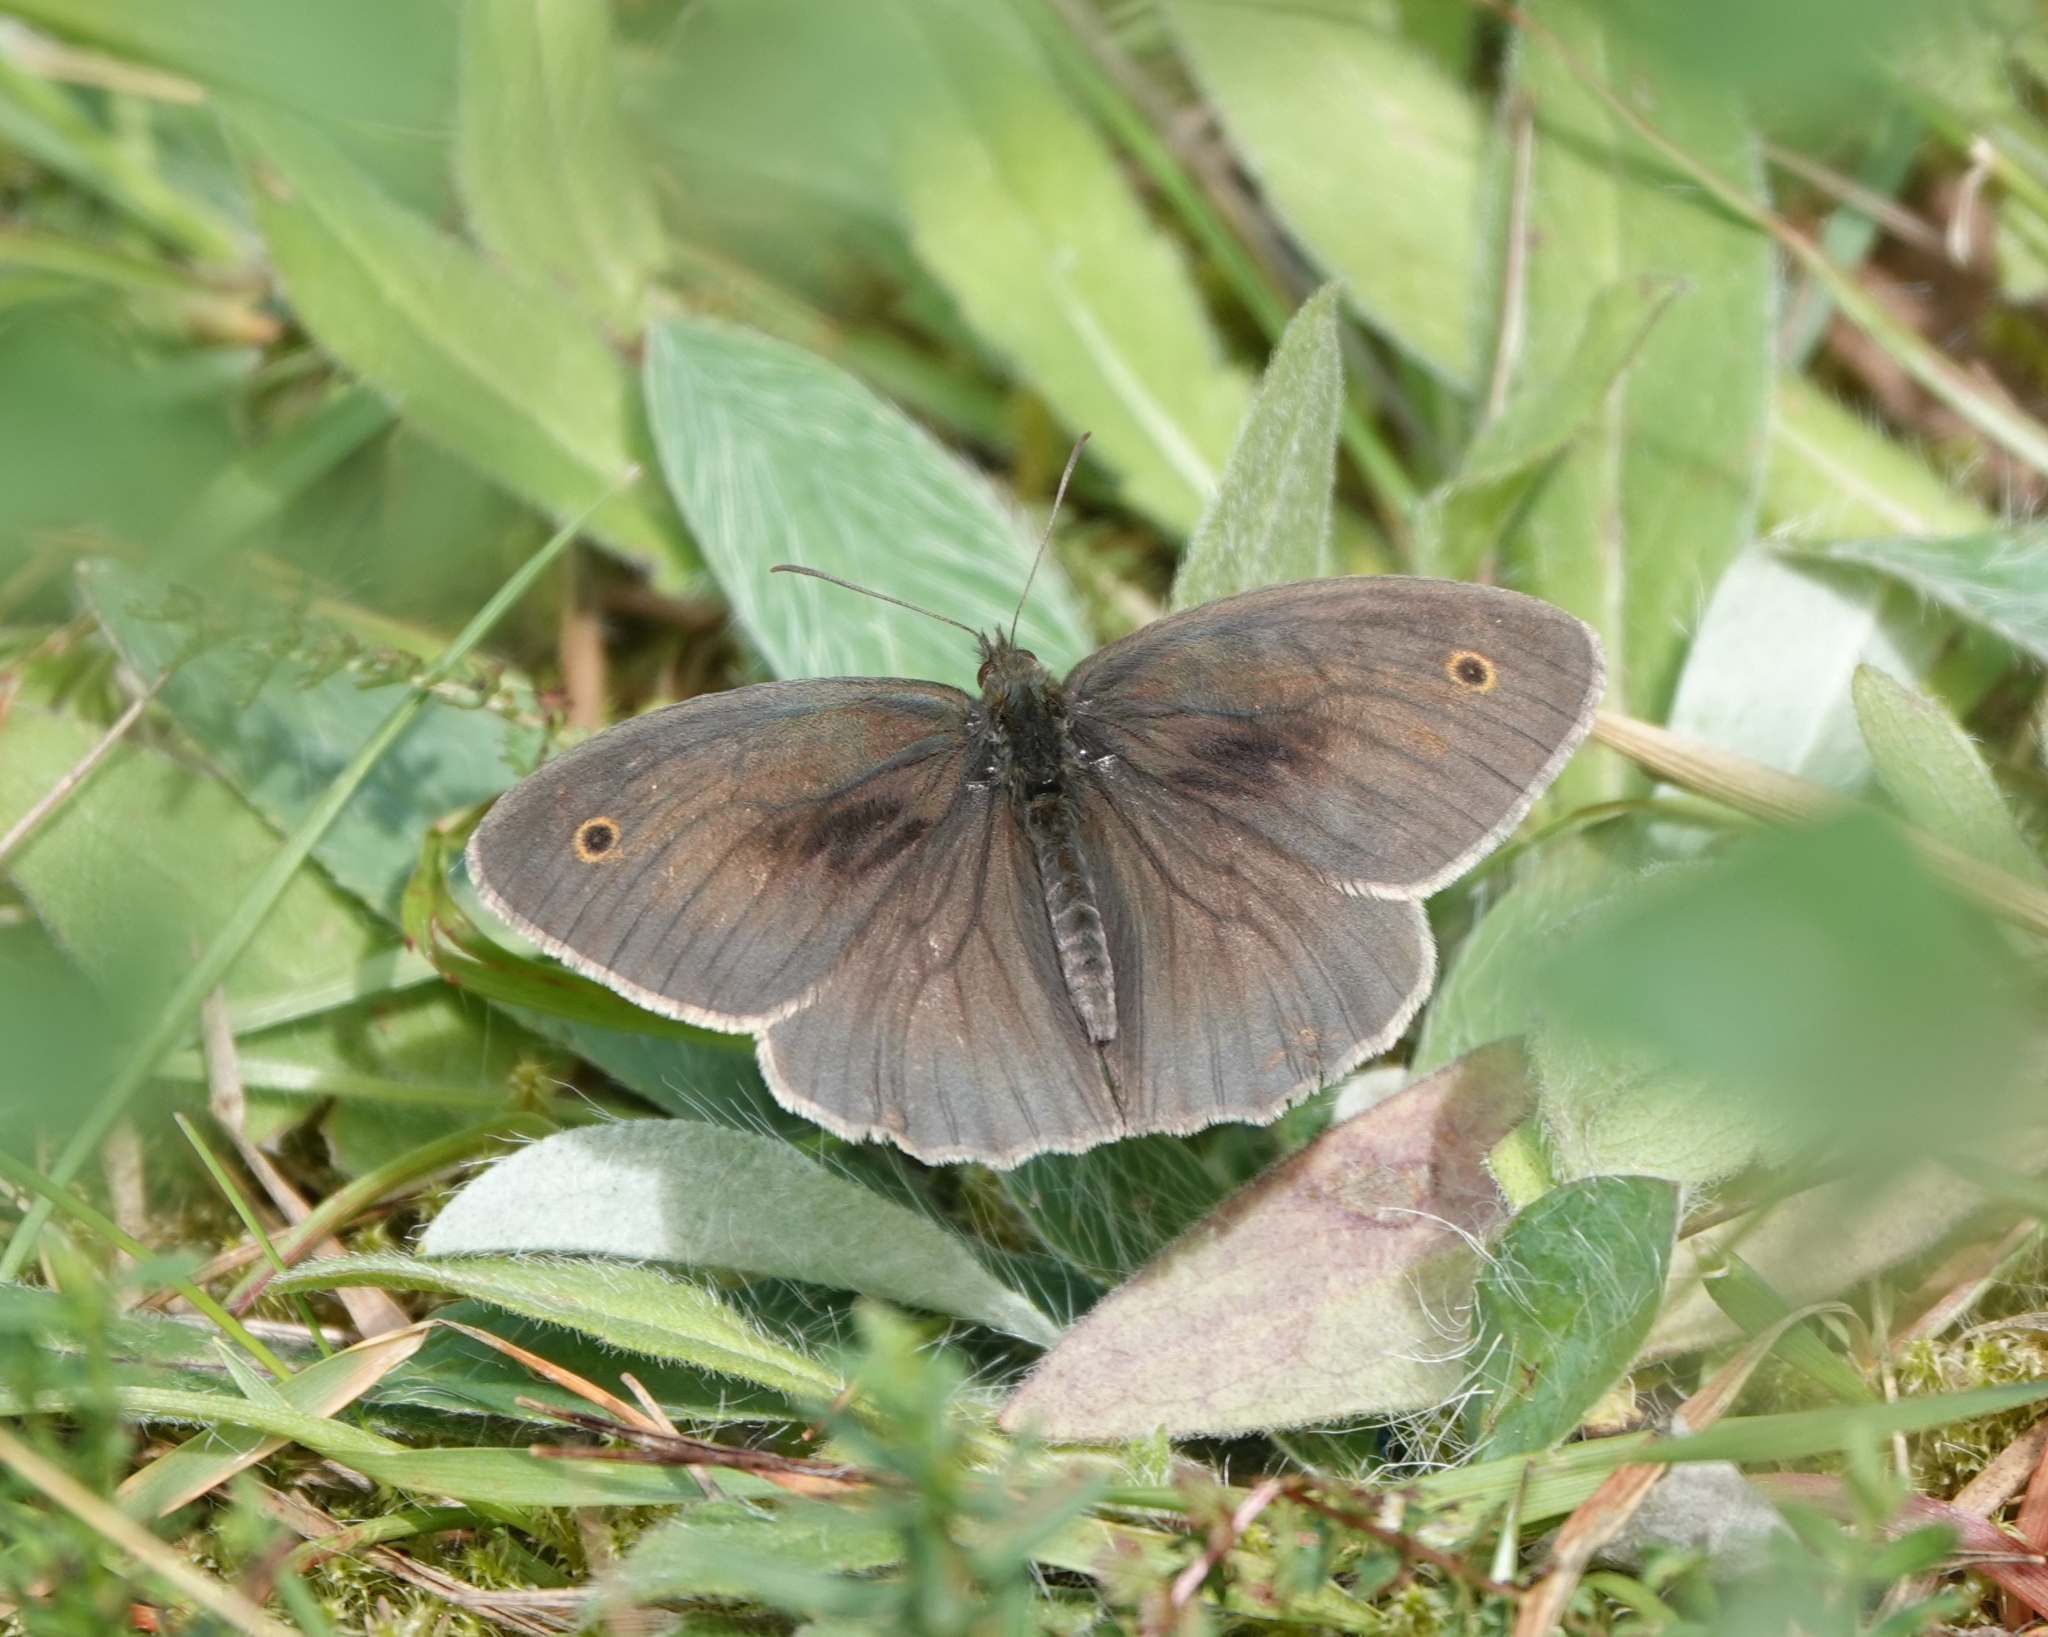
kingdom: Animalia
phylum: Arthropoda
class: Insecta
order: Lepidoptera
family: Nymphalidae
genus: Maniola
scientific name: Maniola jurtina
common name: Meadow brown
